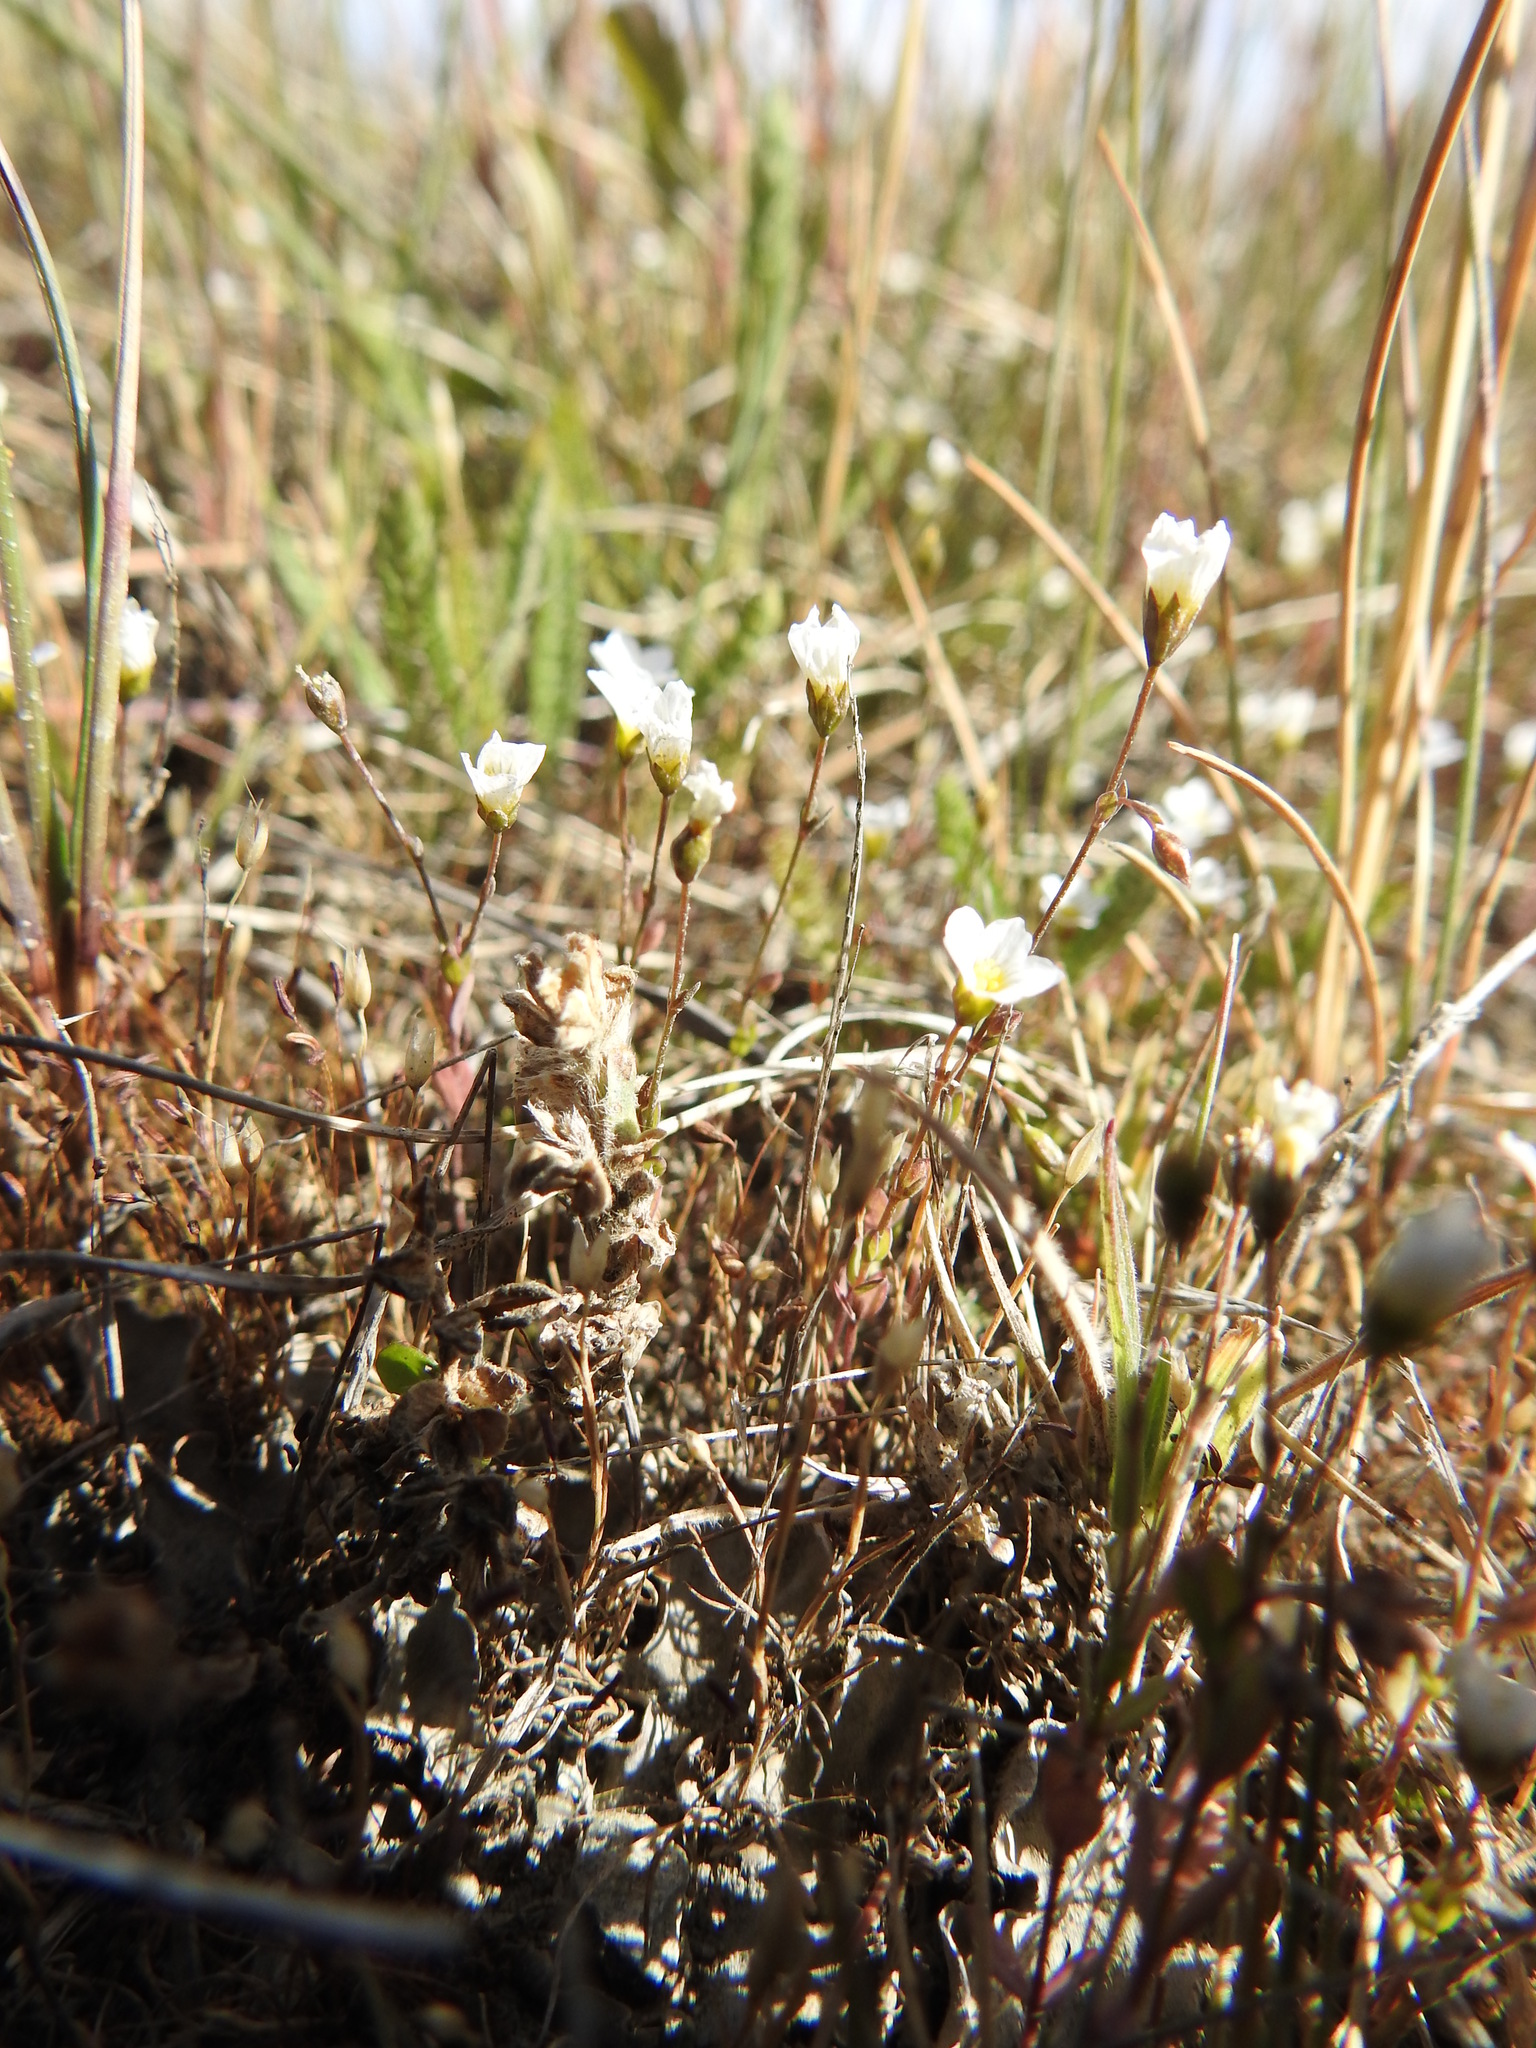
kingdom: Plantae
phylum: Tracheophyta
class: Magnoliopsida
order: Malpighiales
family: Linaceae
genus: Linum
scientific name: Linum catharticum
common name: Fairy flax
